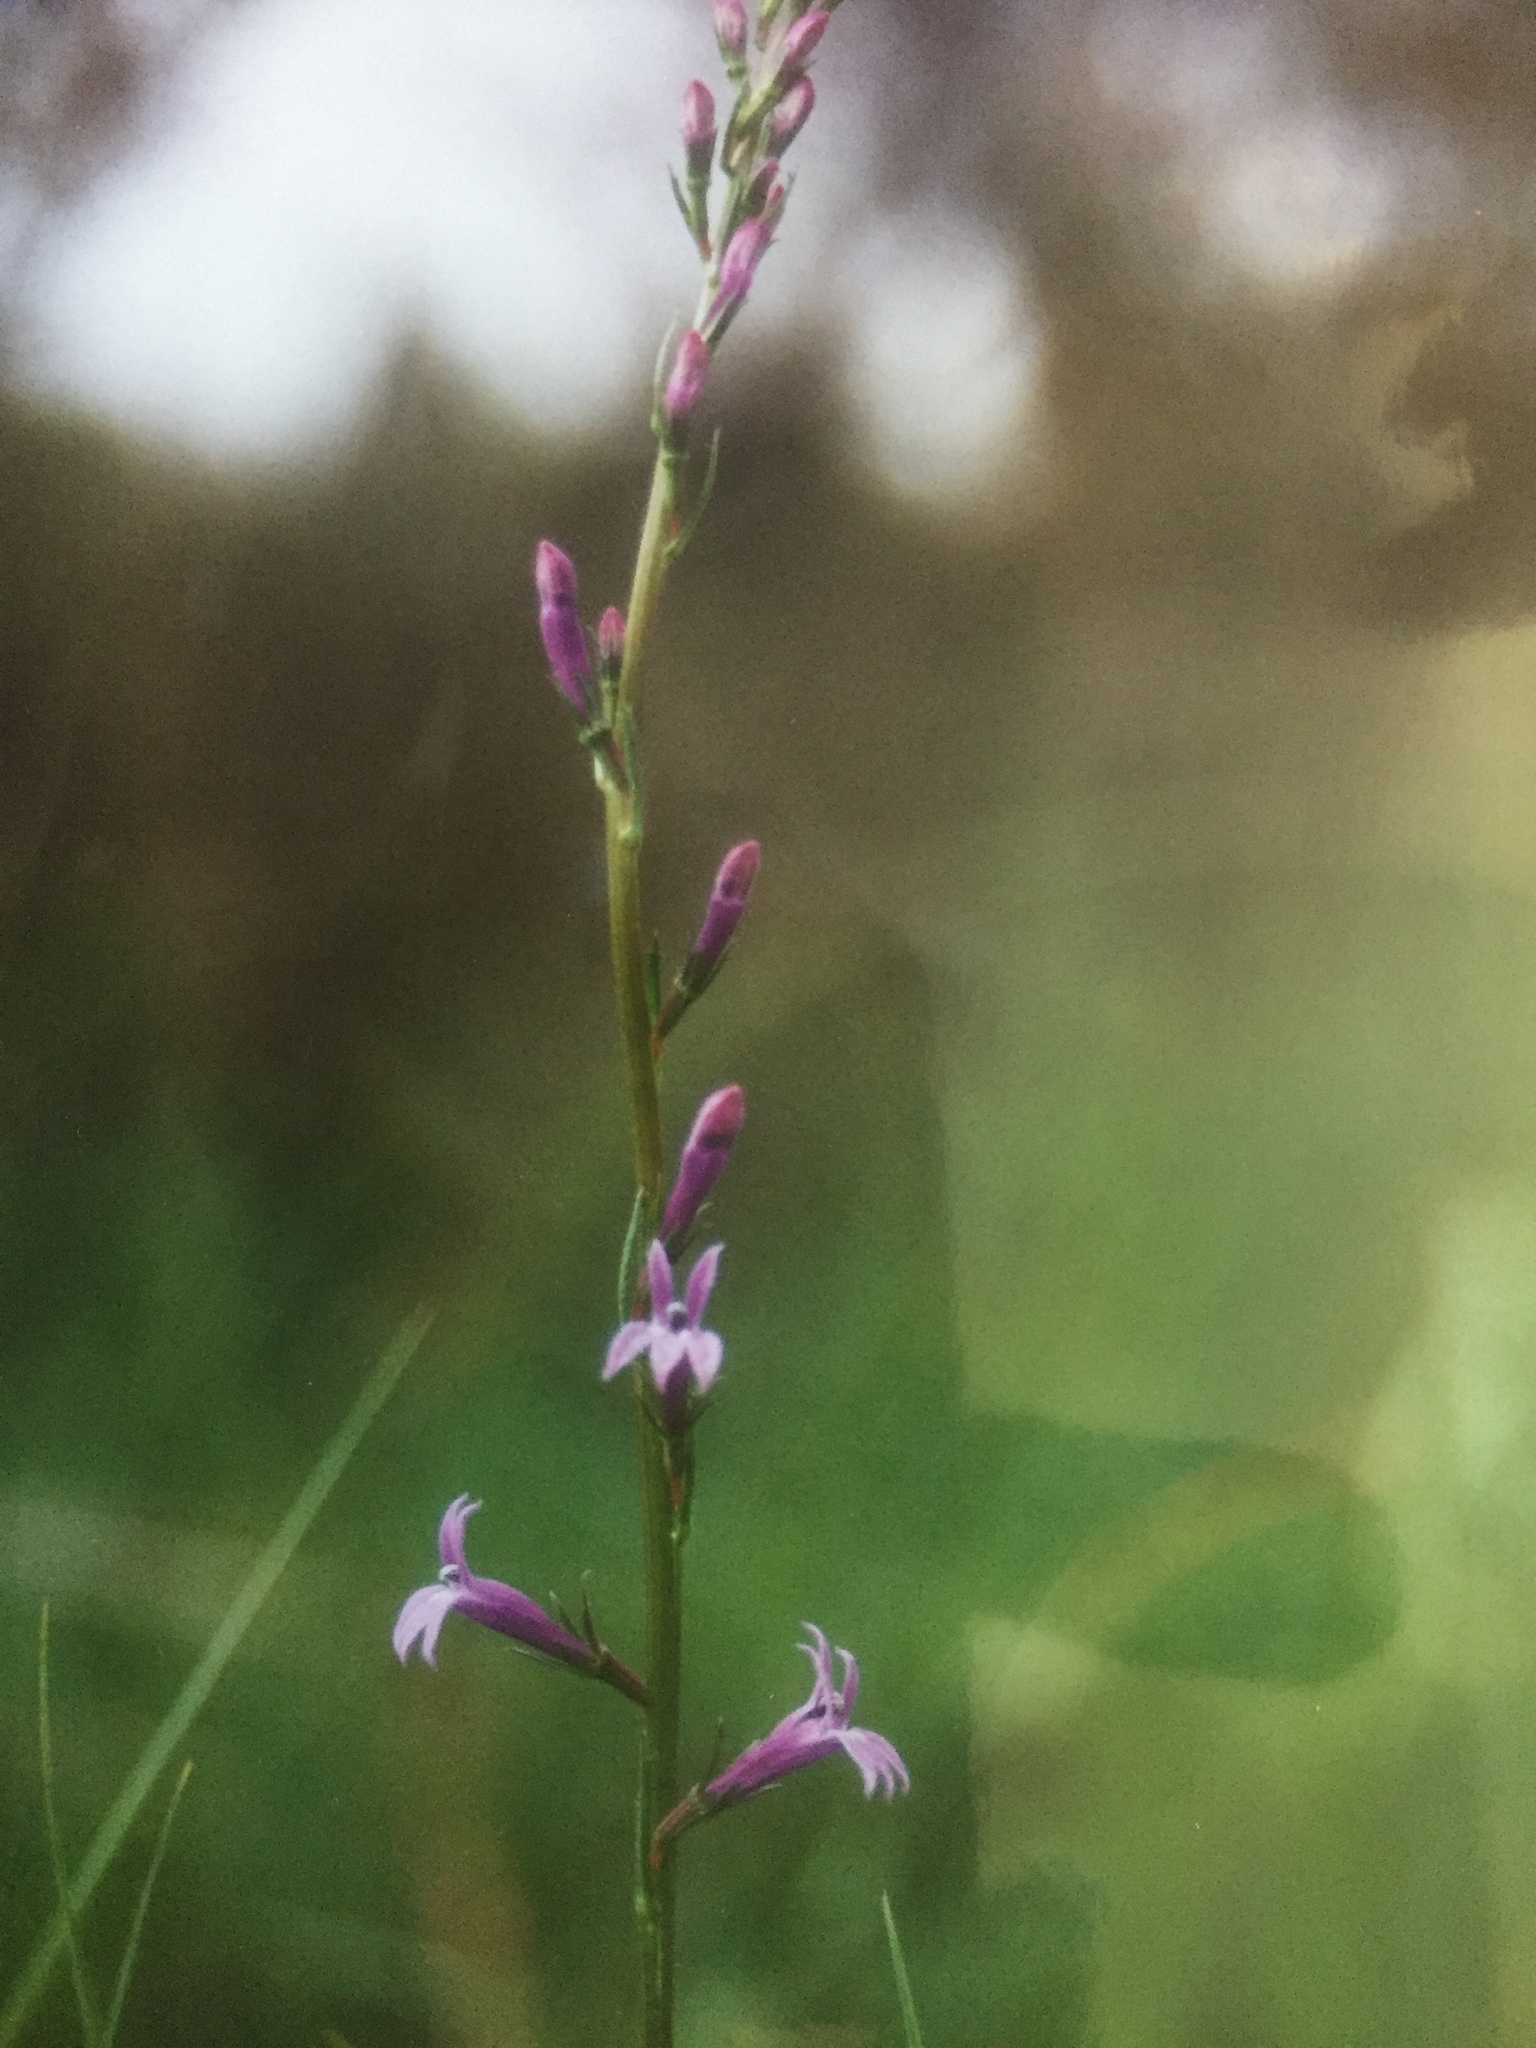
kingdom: Plantae
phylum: Tracheophyta
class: Magnoliopsida
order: Asterales
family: Campanulaceae
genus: Lobelia
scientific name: Lobelia urens
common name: Heath lobelia
